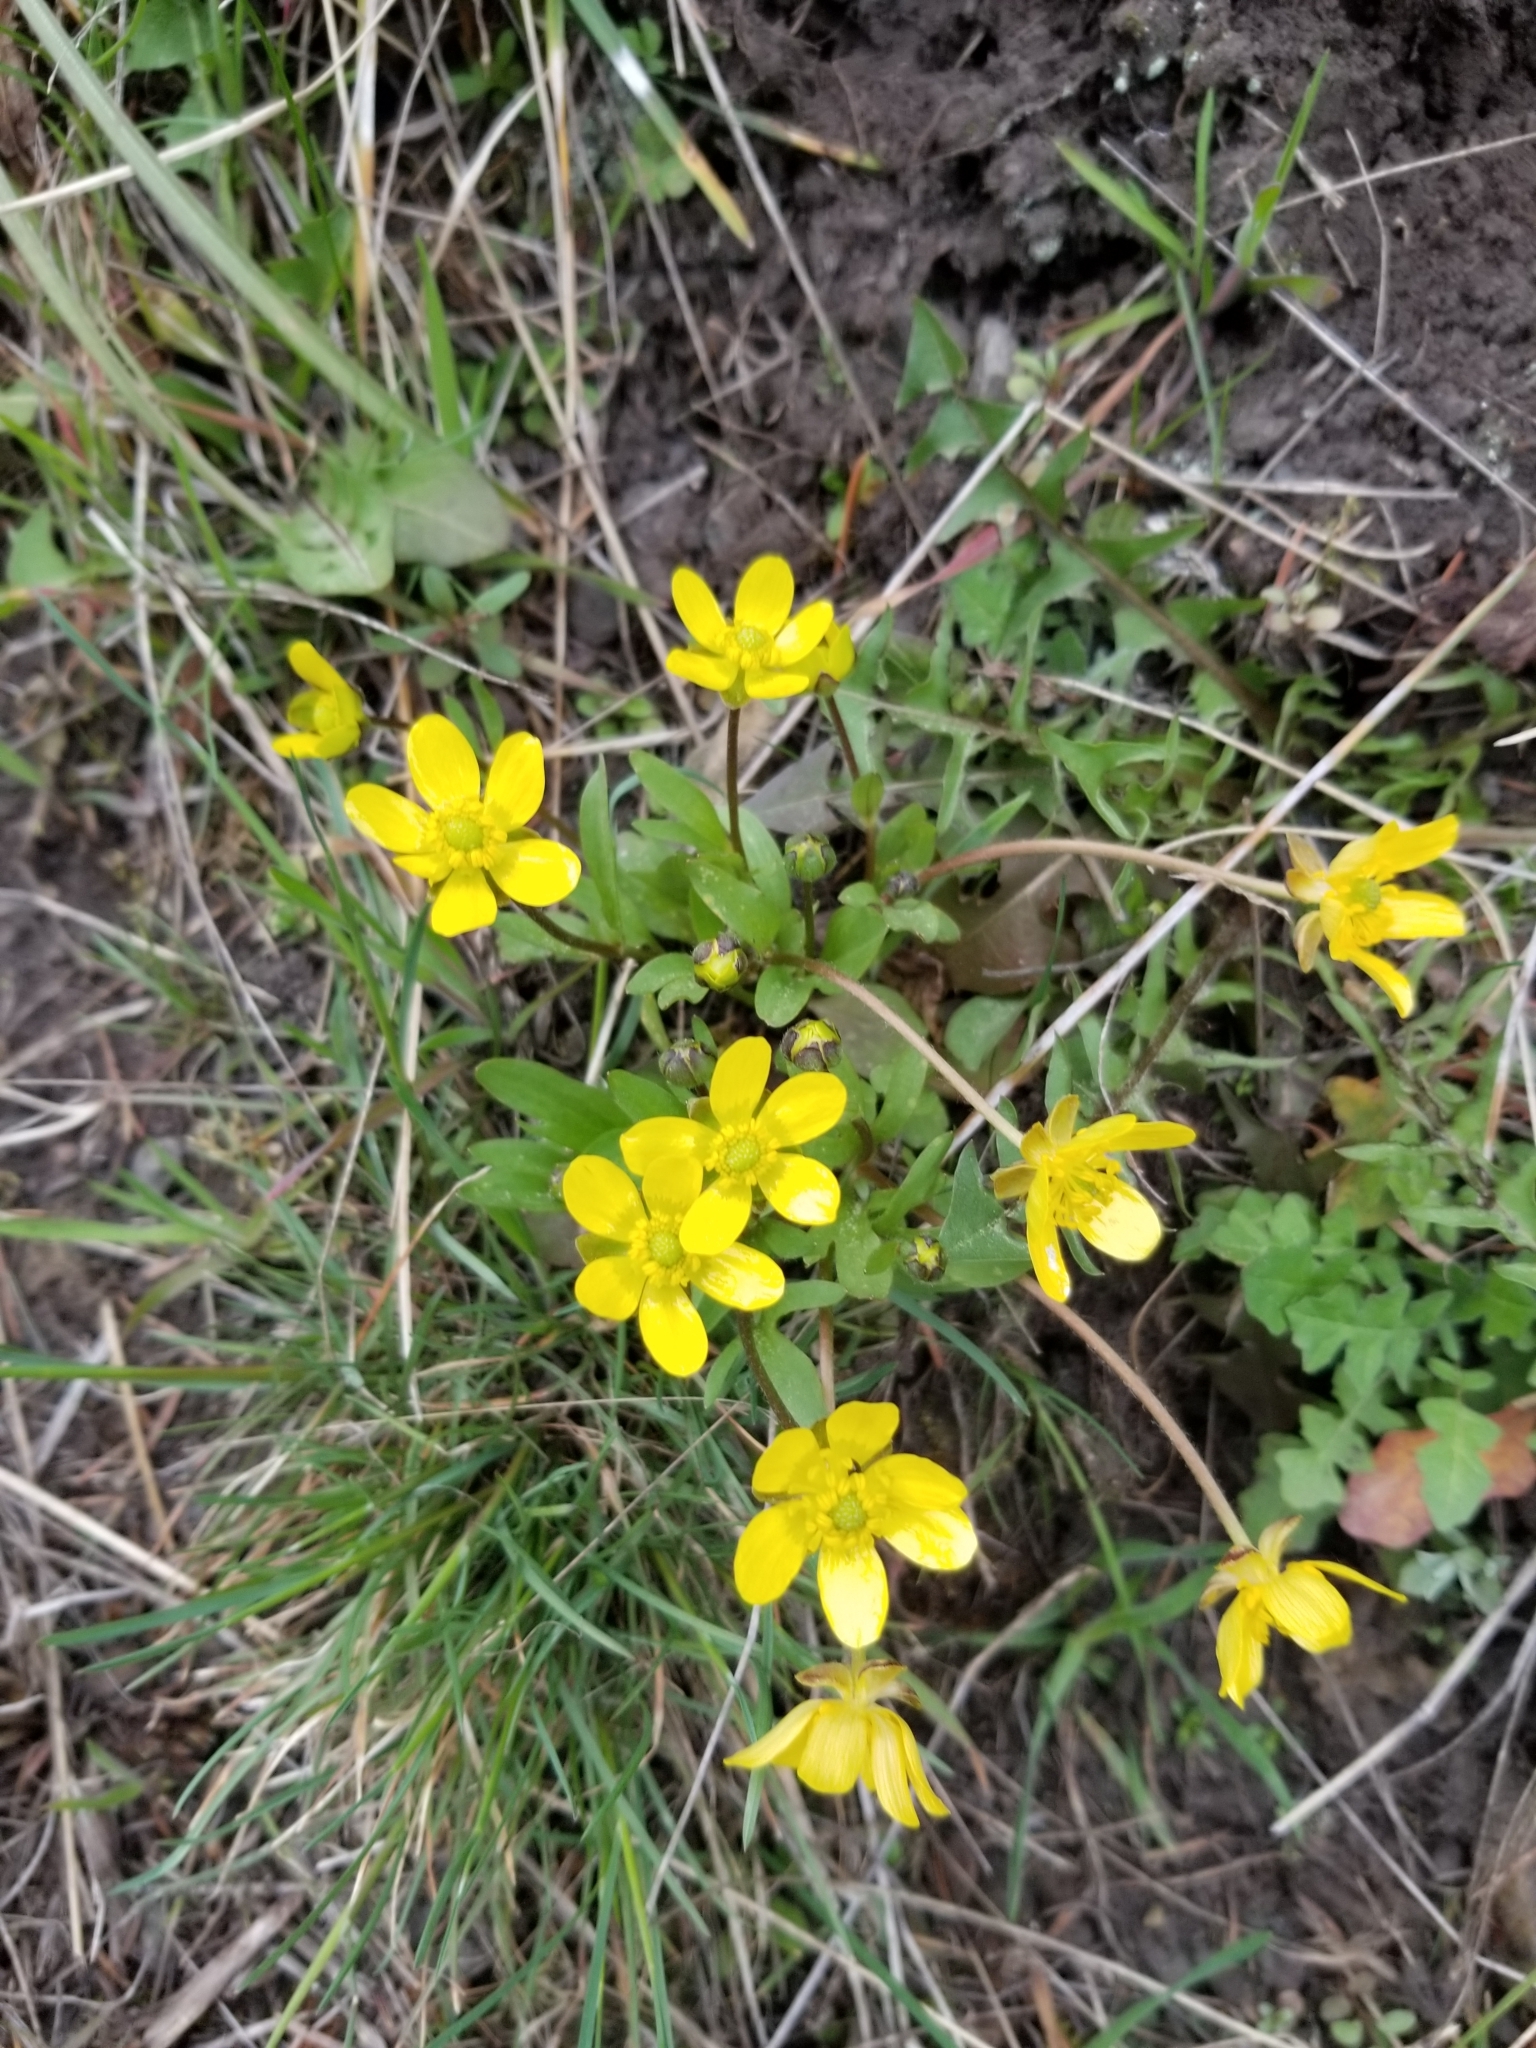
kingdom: Plantae
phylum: Tracheophyta
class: Magnoliopsida
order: Ranunculales
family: Ranunculaceae
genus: Ranunculus
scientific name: Ranunculus glaberrimus
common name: Sagebrush buttercup
